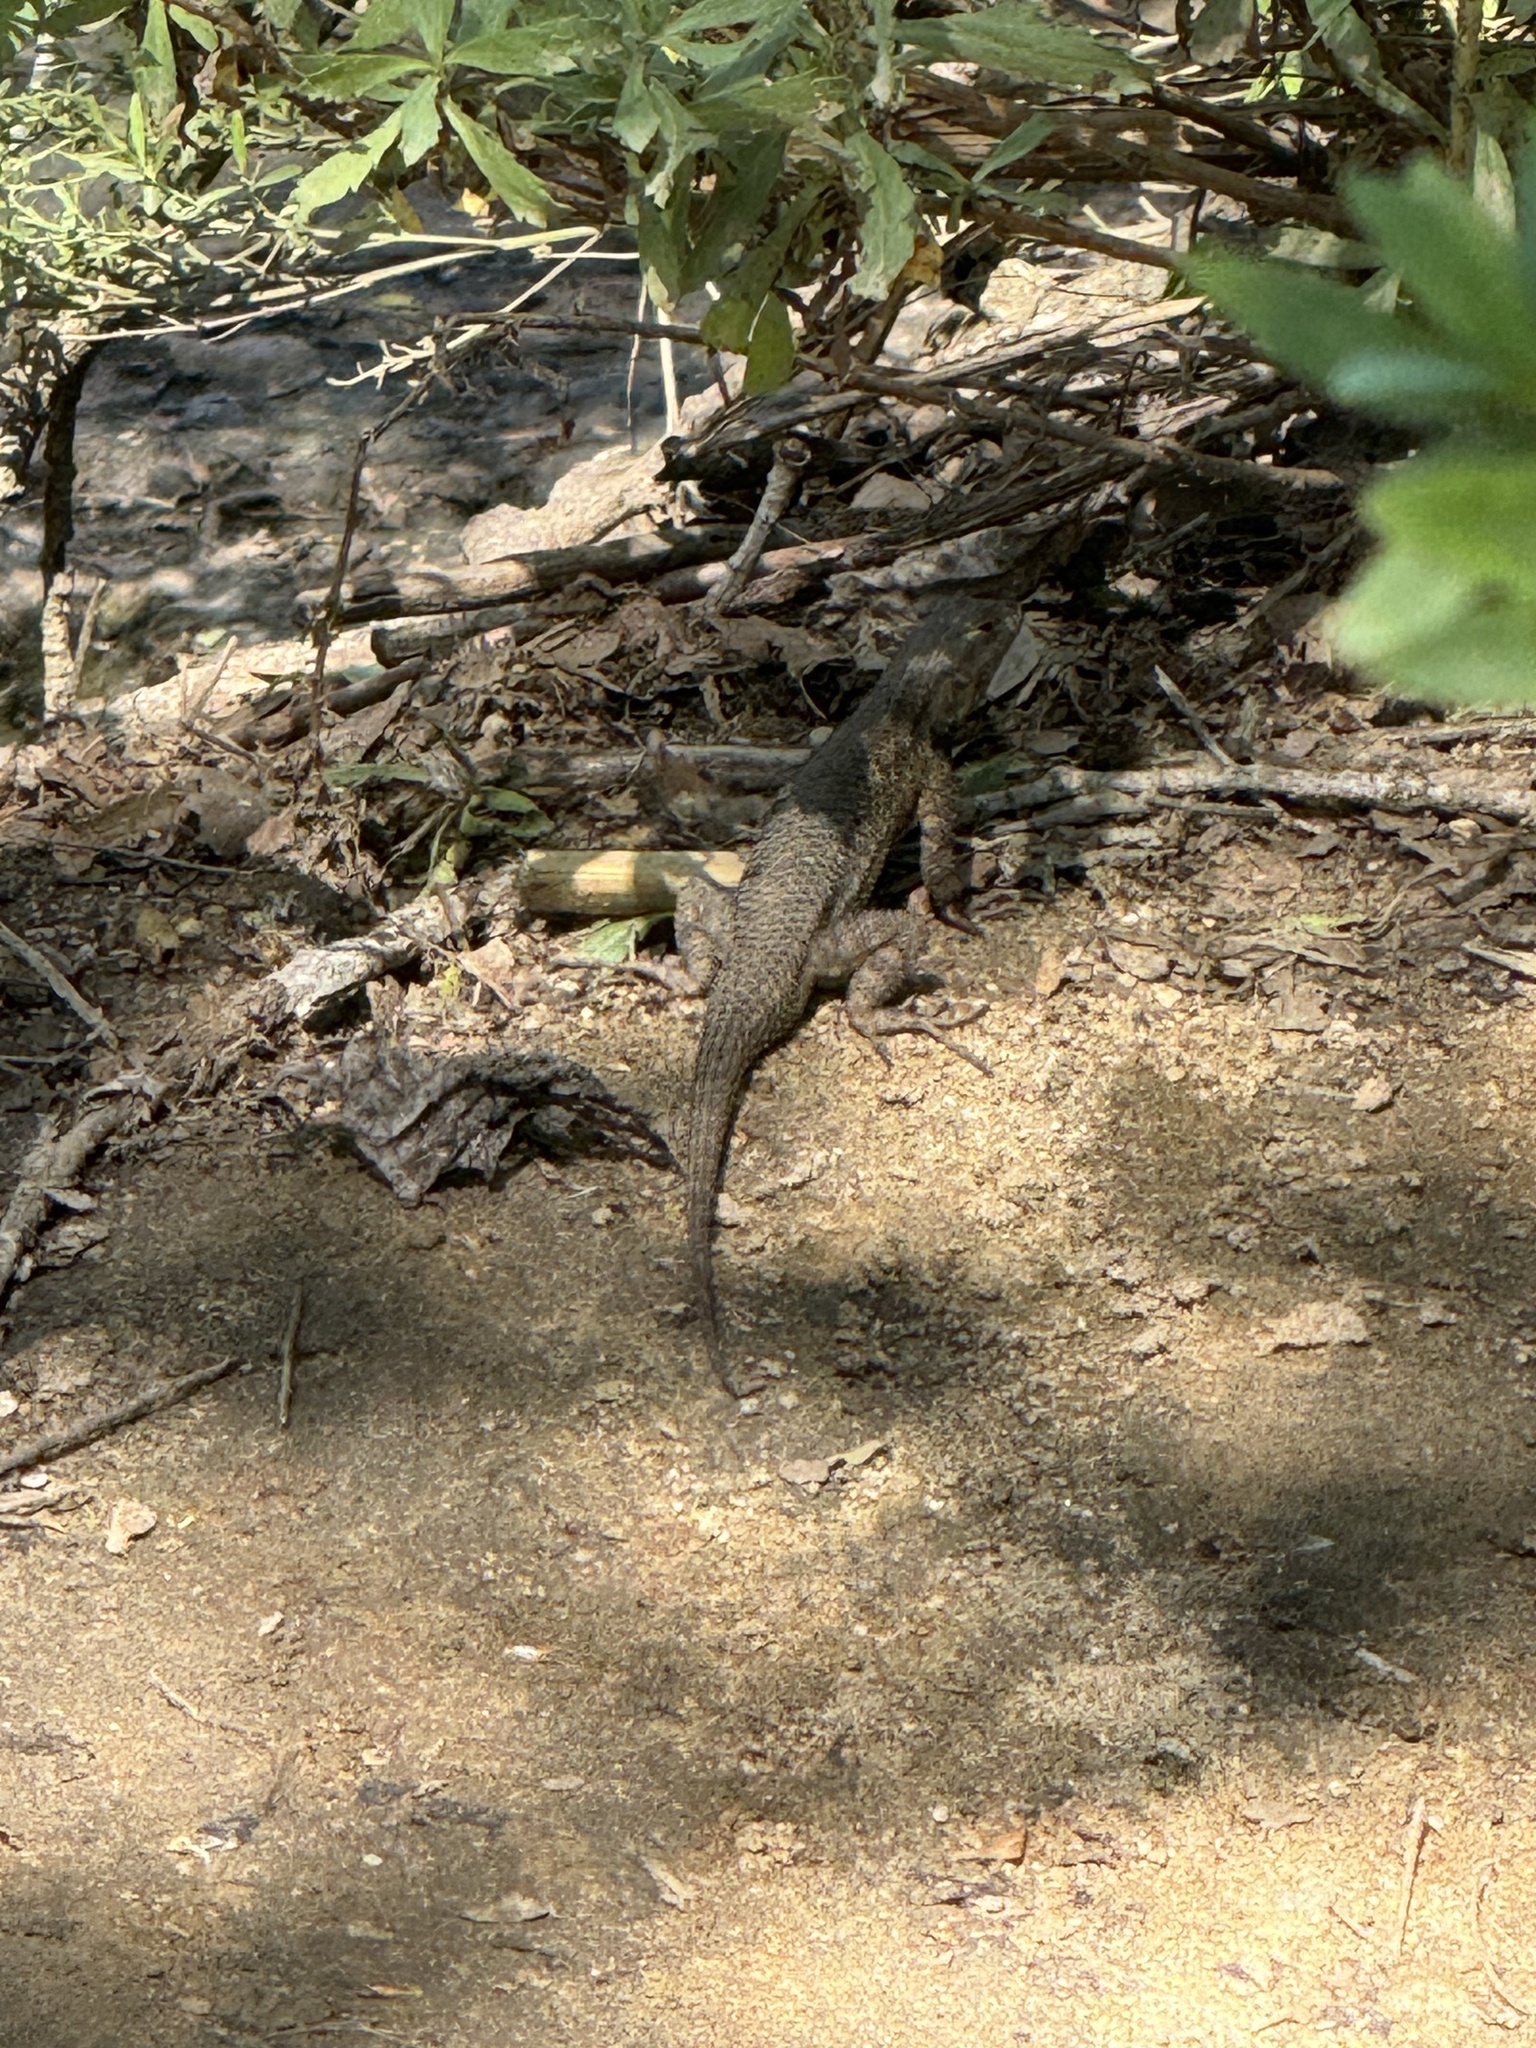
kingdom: Animalia
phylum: Chordata
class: Squamata
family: Phrynosomatidae
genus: Sceloporus
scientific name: Sceloporus occidentalis
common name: Western fence lizard
